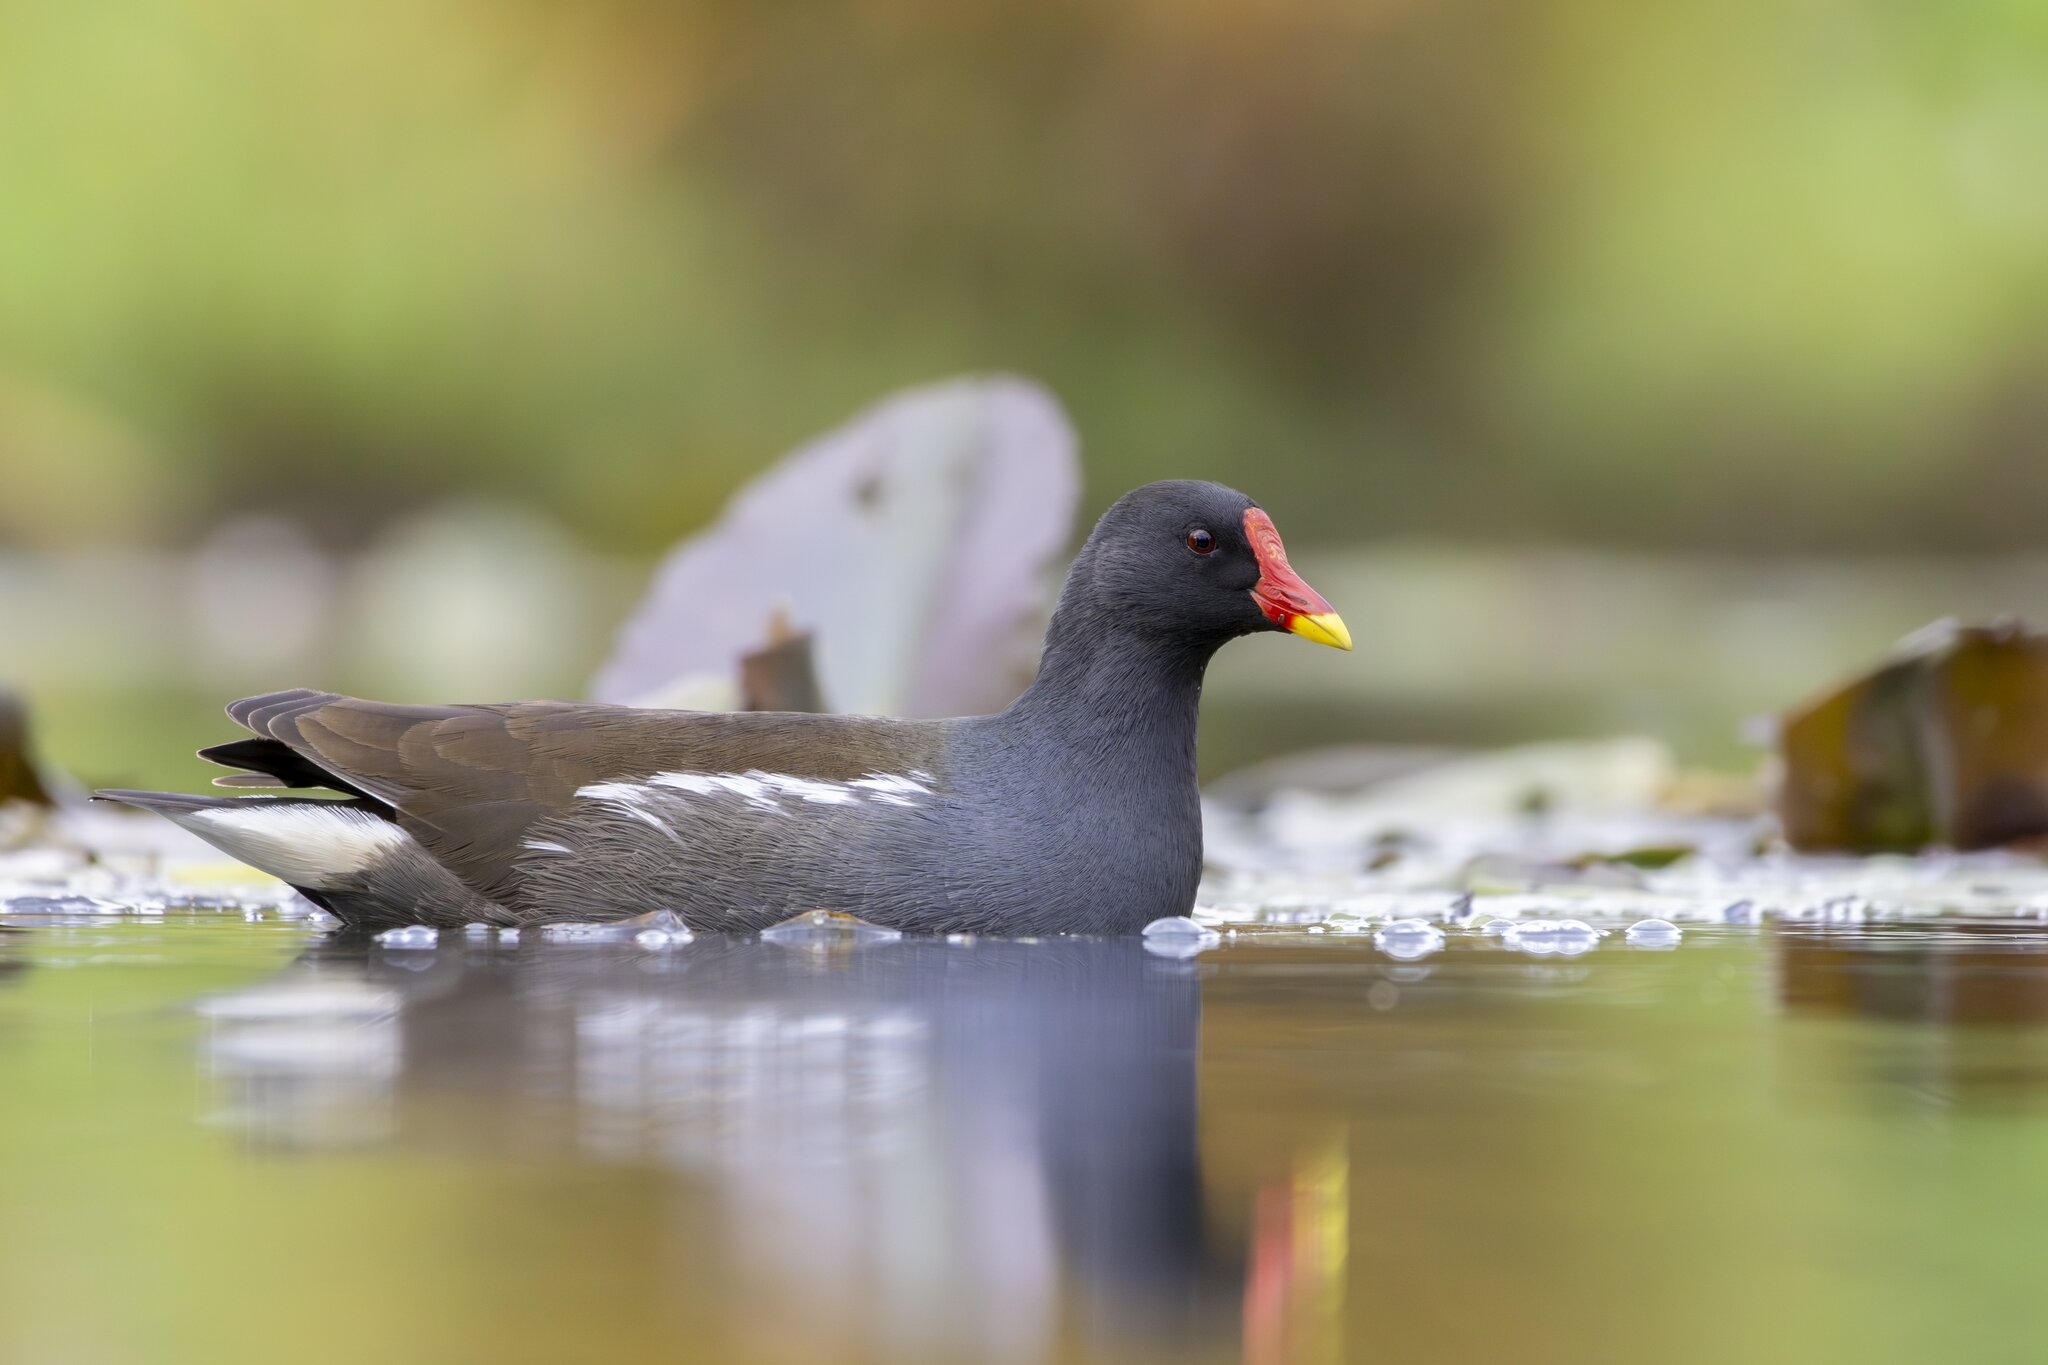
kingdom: Animalia
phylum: Chordata
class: Aves
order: Gruiformes
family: Rallidae
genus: Gallinula
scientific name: Gallinula chloropus
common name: Common moorhen
